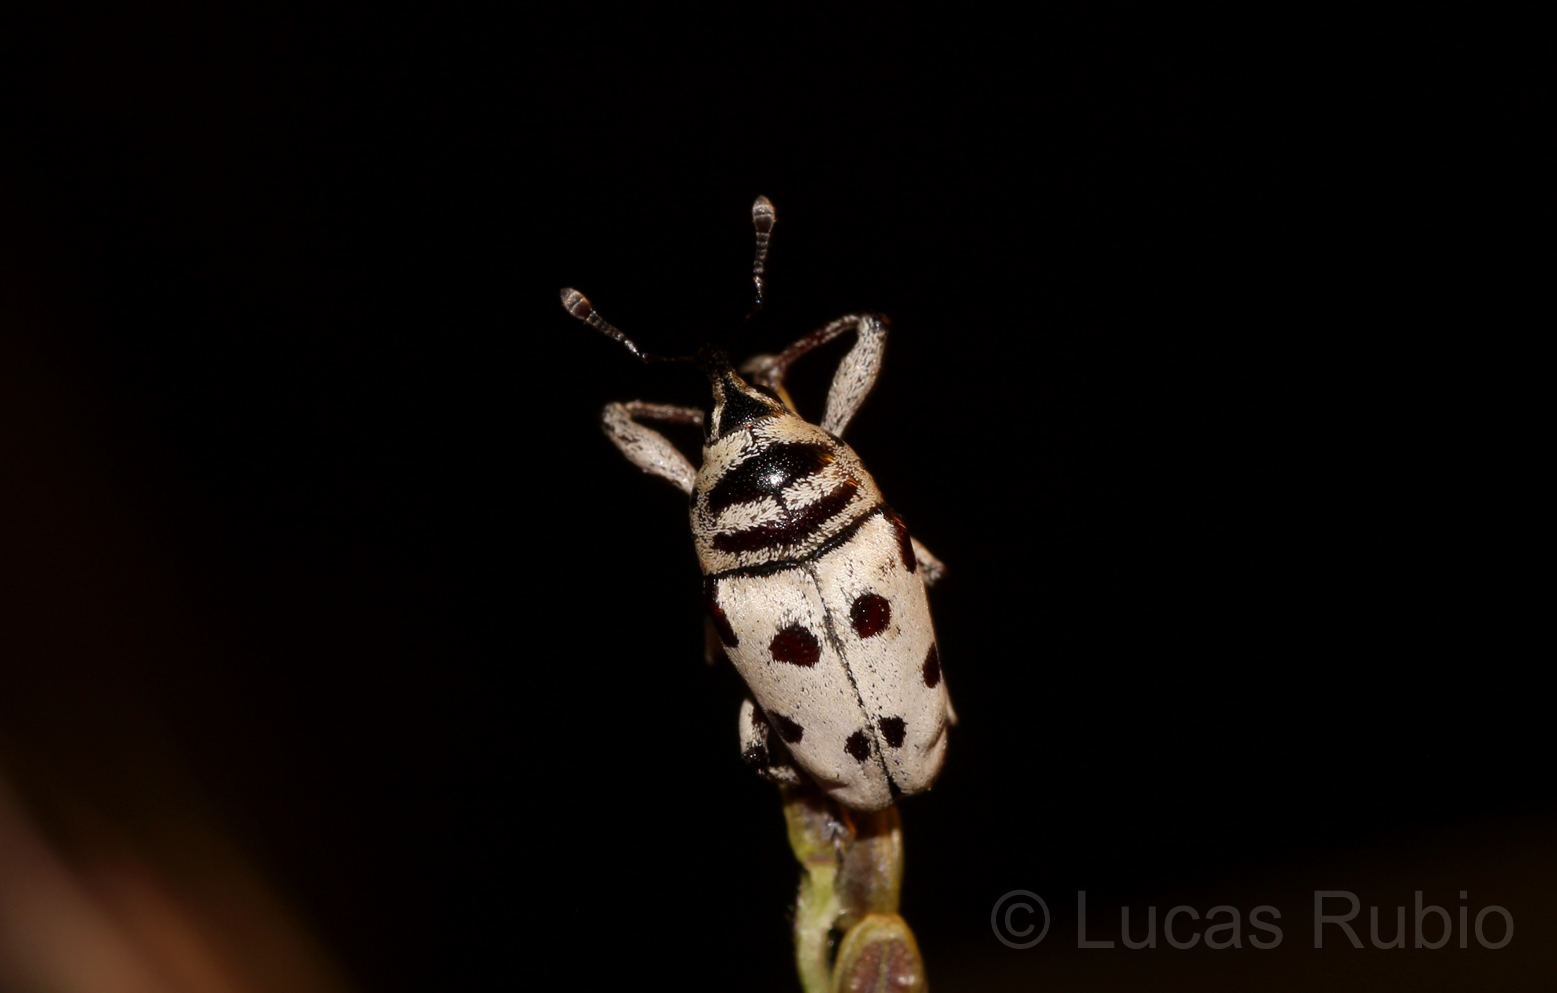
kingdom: Animalia
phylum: Arthropoda
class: Insecta
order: Coleoptera
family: Curculionidae
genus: Cholus
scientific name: Cholus boisduvali
